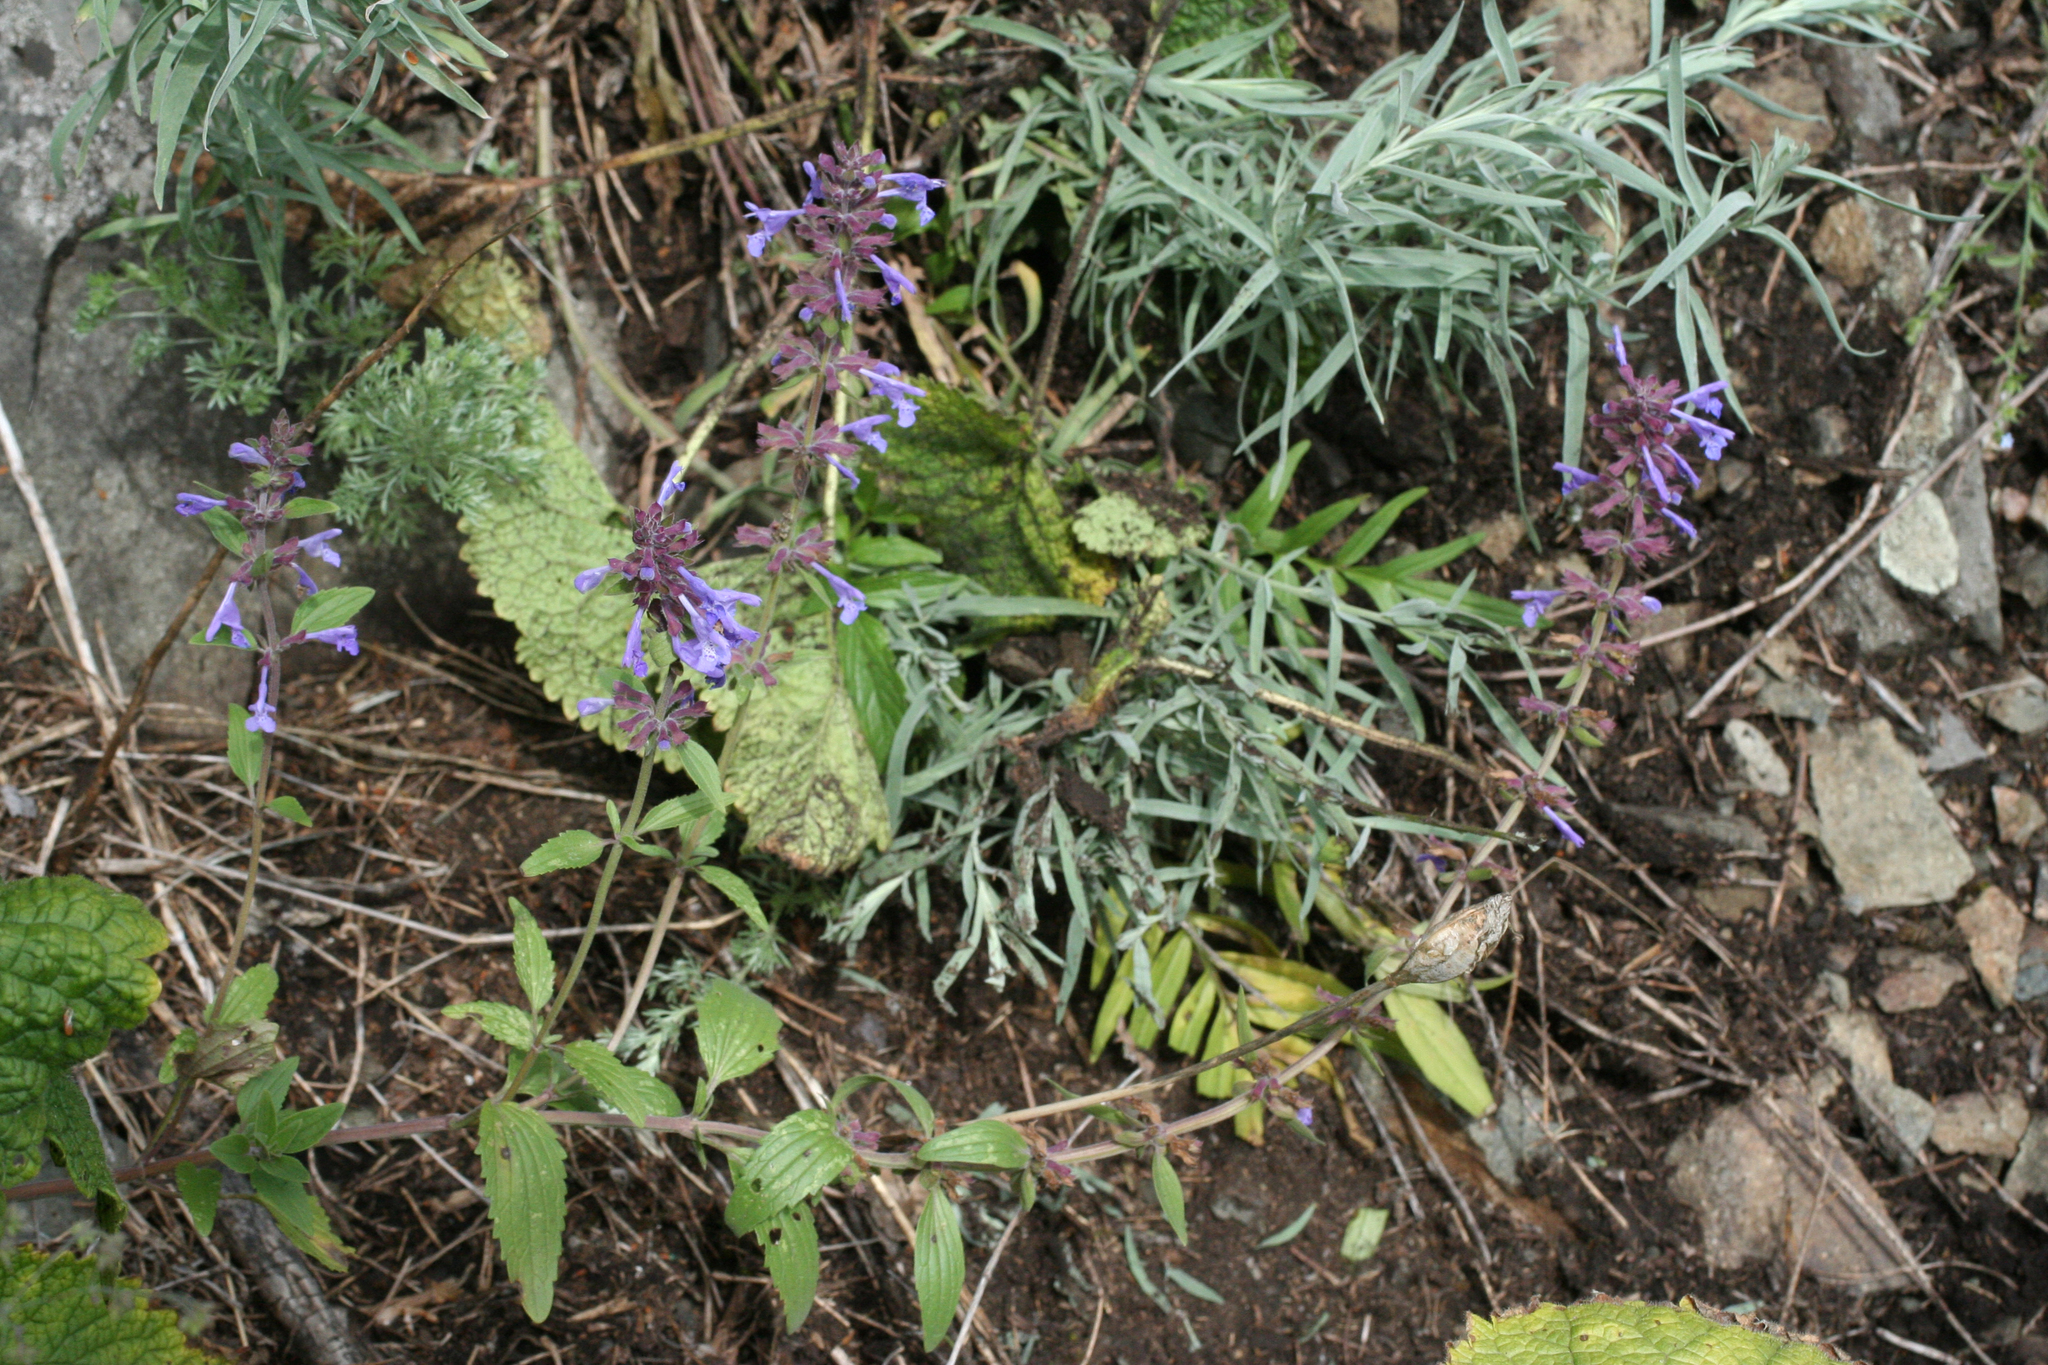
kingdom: Plantae
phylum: Tracheophyta
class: Magnoliopsida
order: Lamiales
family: Lamiaceae
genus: Dracocephalum
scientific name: Dracocephalum nutans
